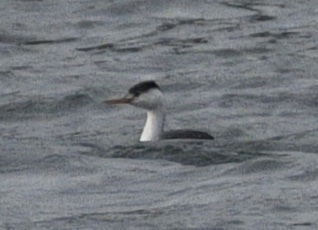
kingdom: Animalia
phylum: Chordata
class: Aves
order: Podicipediformes
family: Podicipedidae
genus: Aechmophorus
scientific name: Aechmophorus clarkii
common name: Clark's grebe
